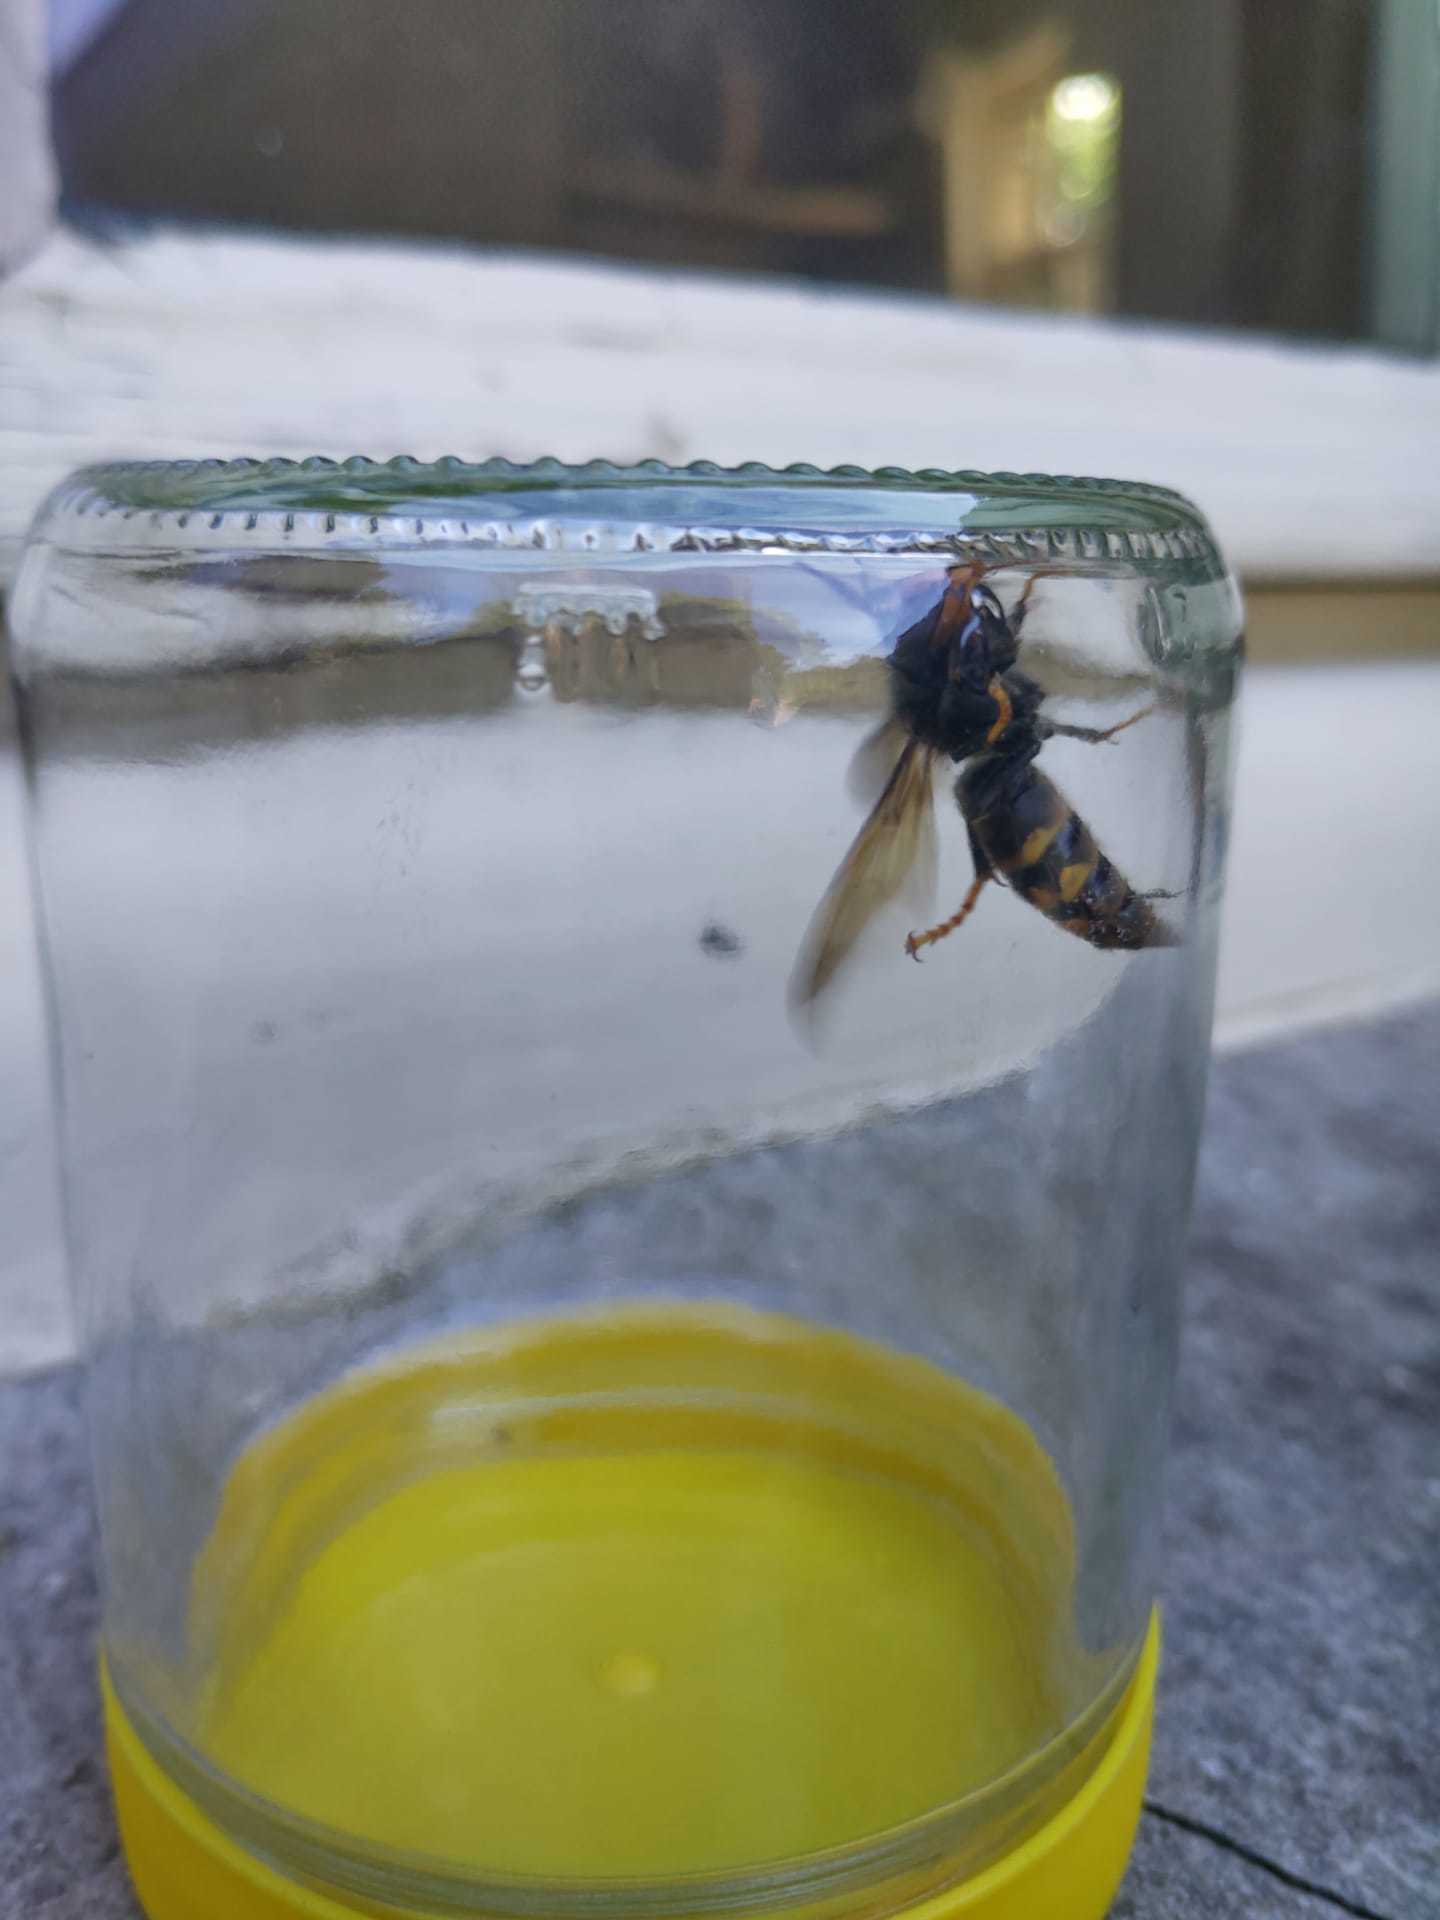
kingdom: Animalia
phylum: Arthropoda
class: Insecta
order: Hymenoptera
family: Vespidae
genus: Vespa
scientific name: Vespa velutina
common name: Asian hornet
